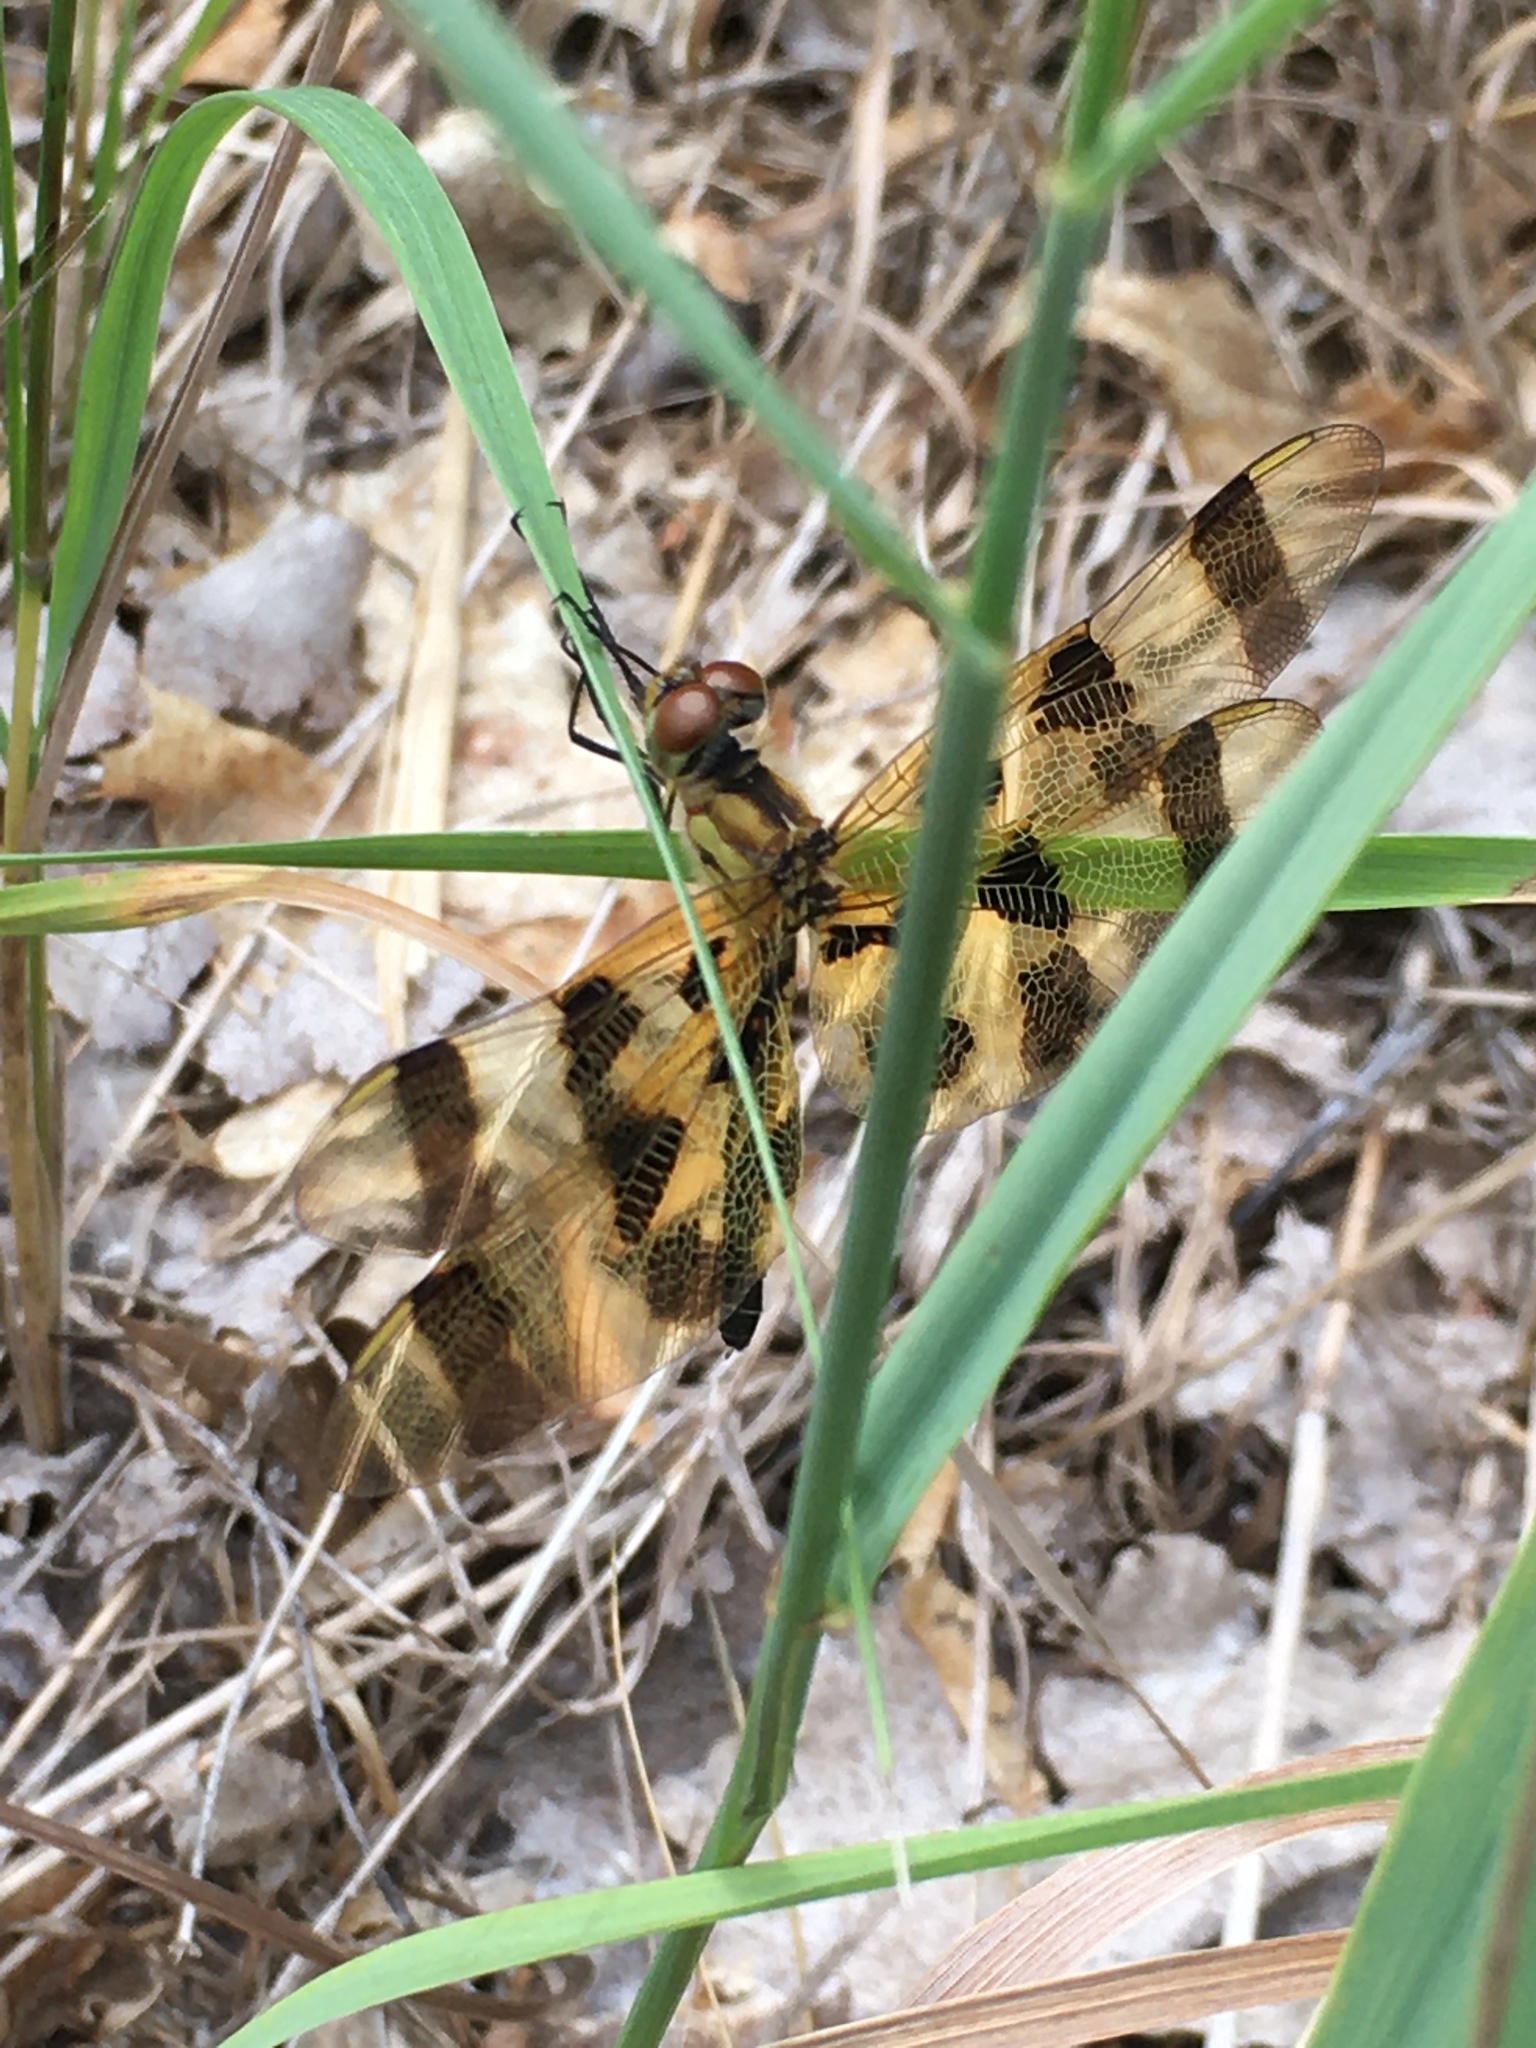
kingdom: Animalia
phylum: Arthropoda
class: Insecta
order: Odonata
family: Libellulidae
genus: Celithemis
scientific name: Celithemis eponina
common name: Halloween pennant
